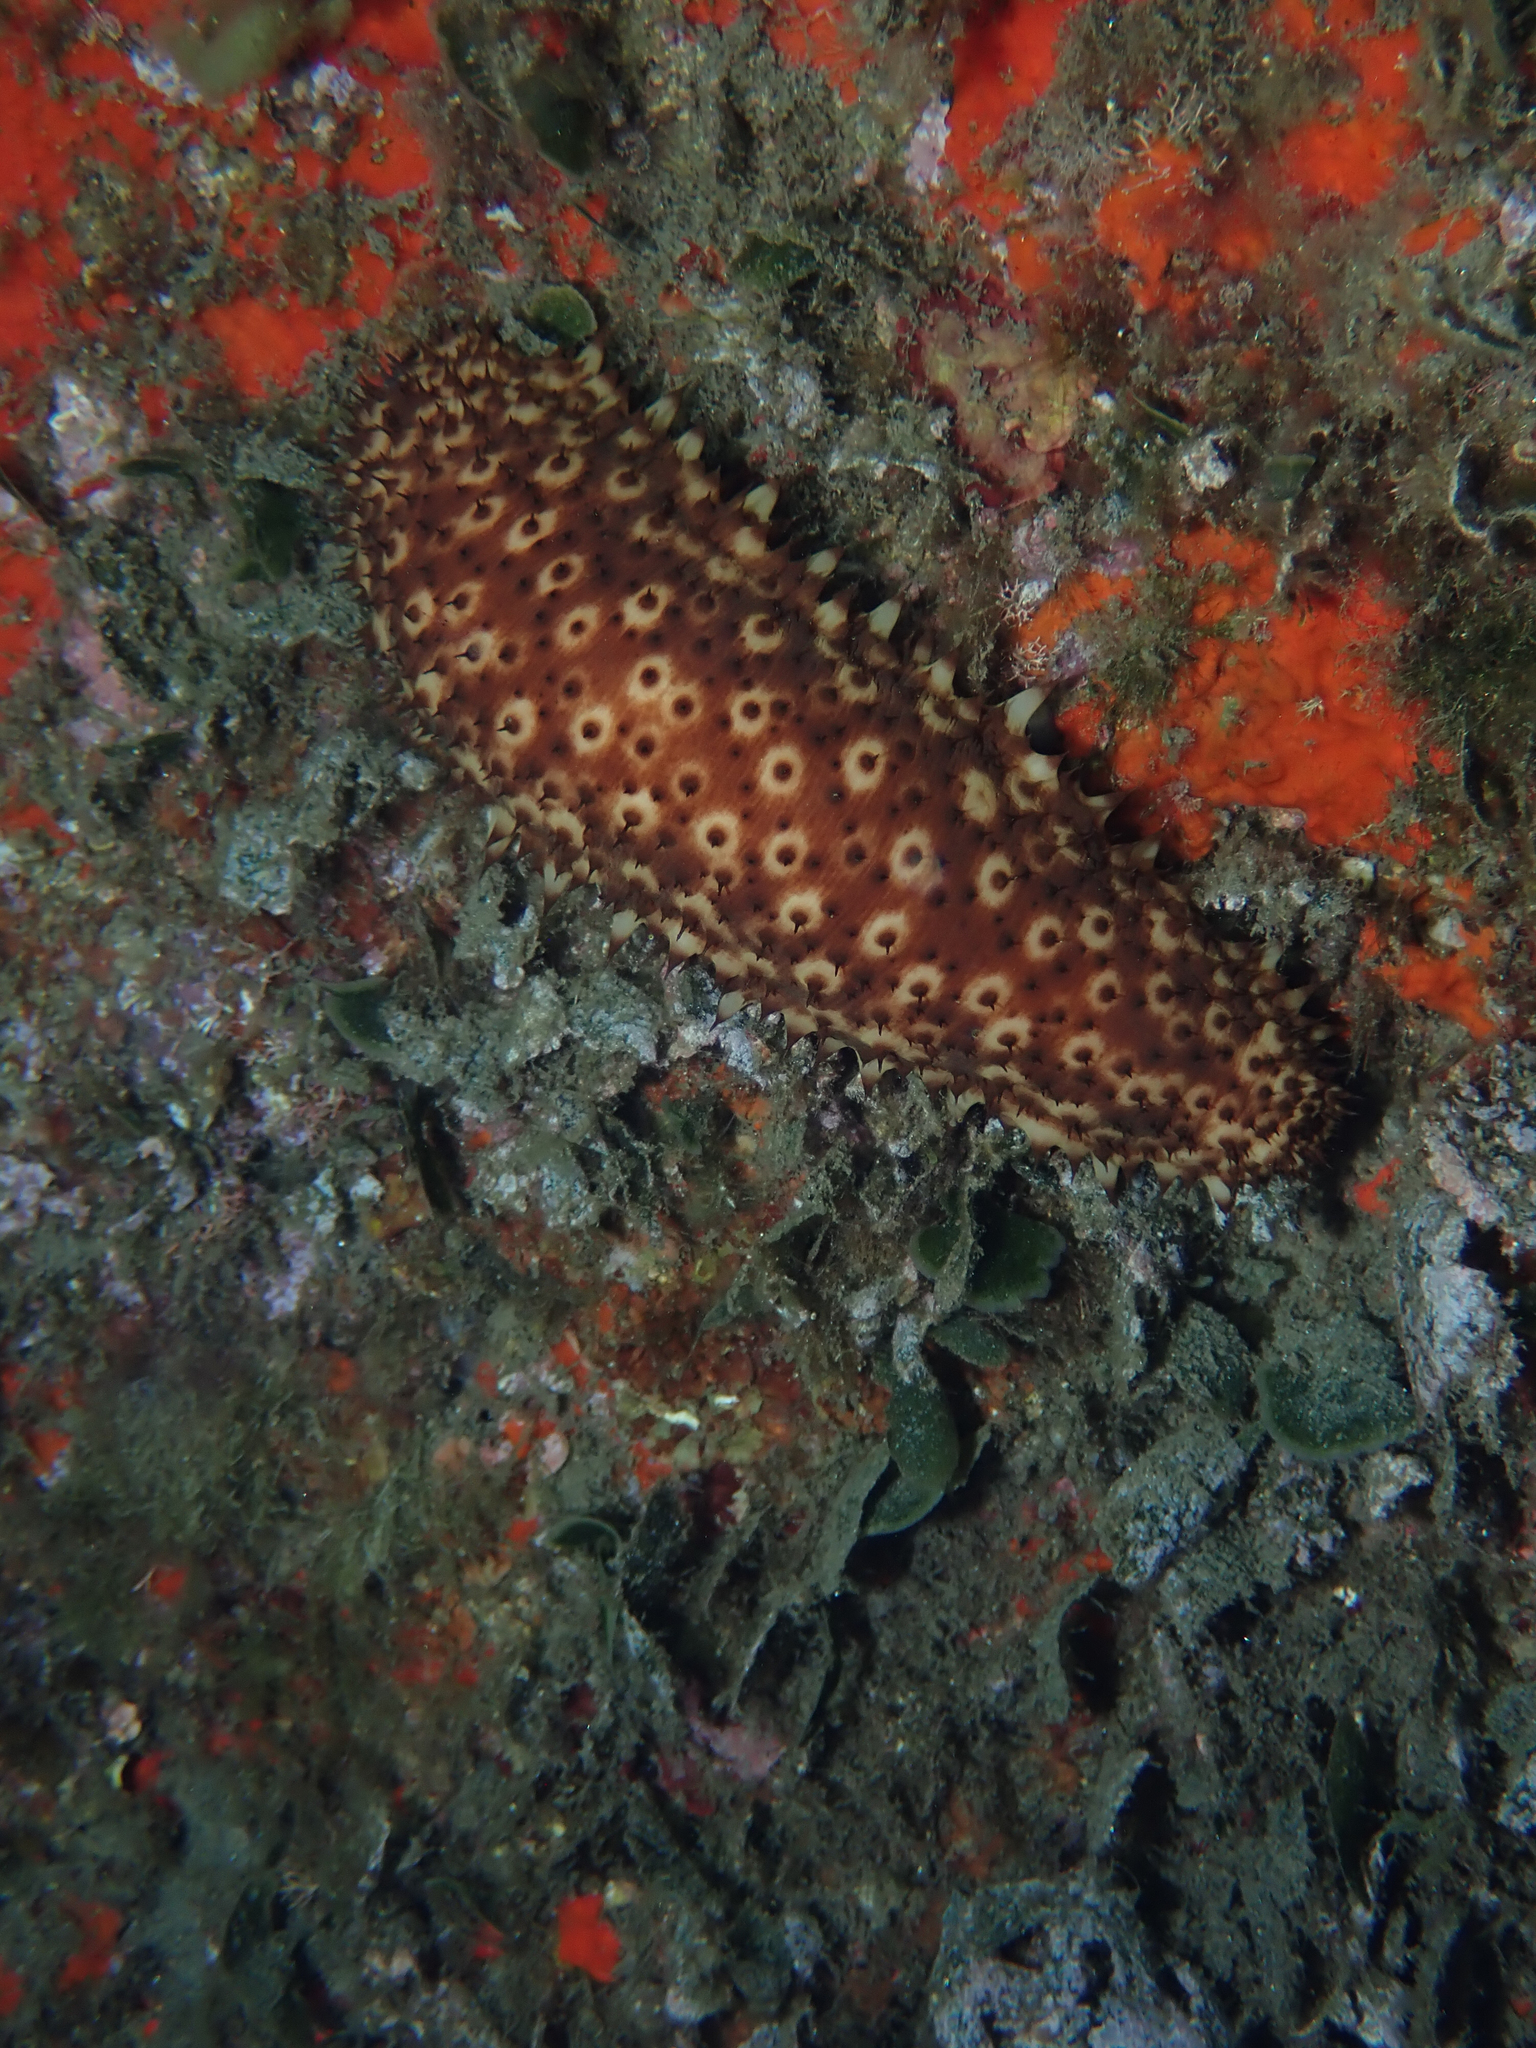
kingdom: Animalia
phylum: Echinodermata
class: Holothuroidea
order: Holothuriida
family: Holothuriidae
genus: Holothuria
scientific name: Holothuria sanctori
